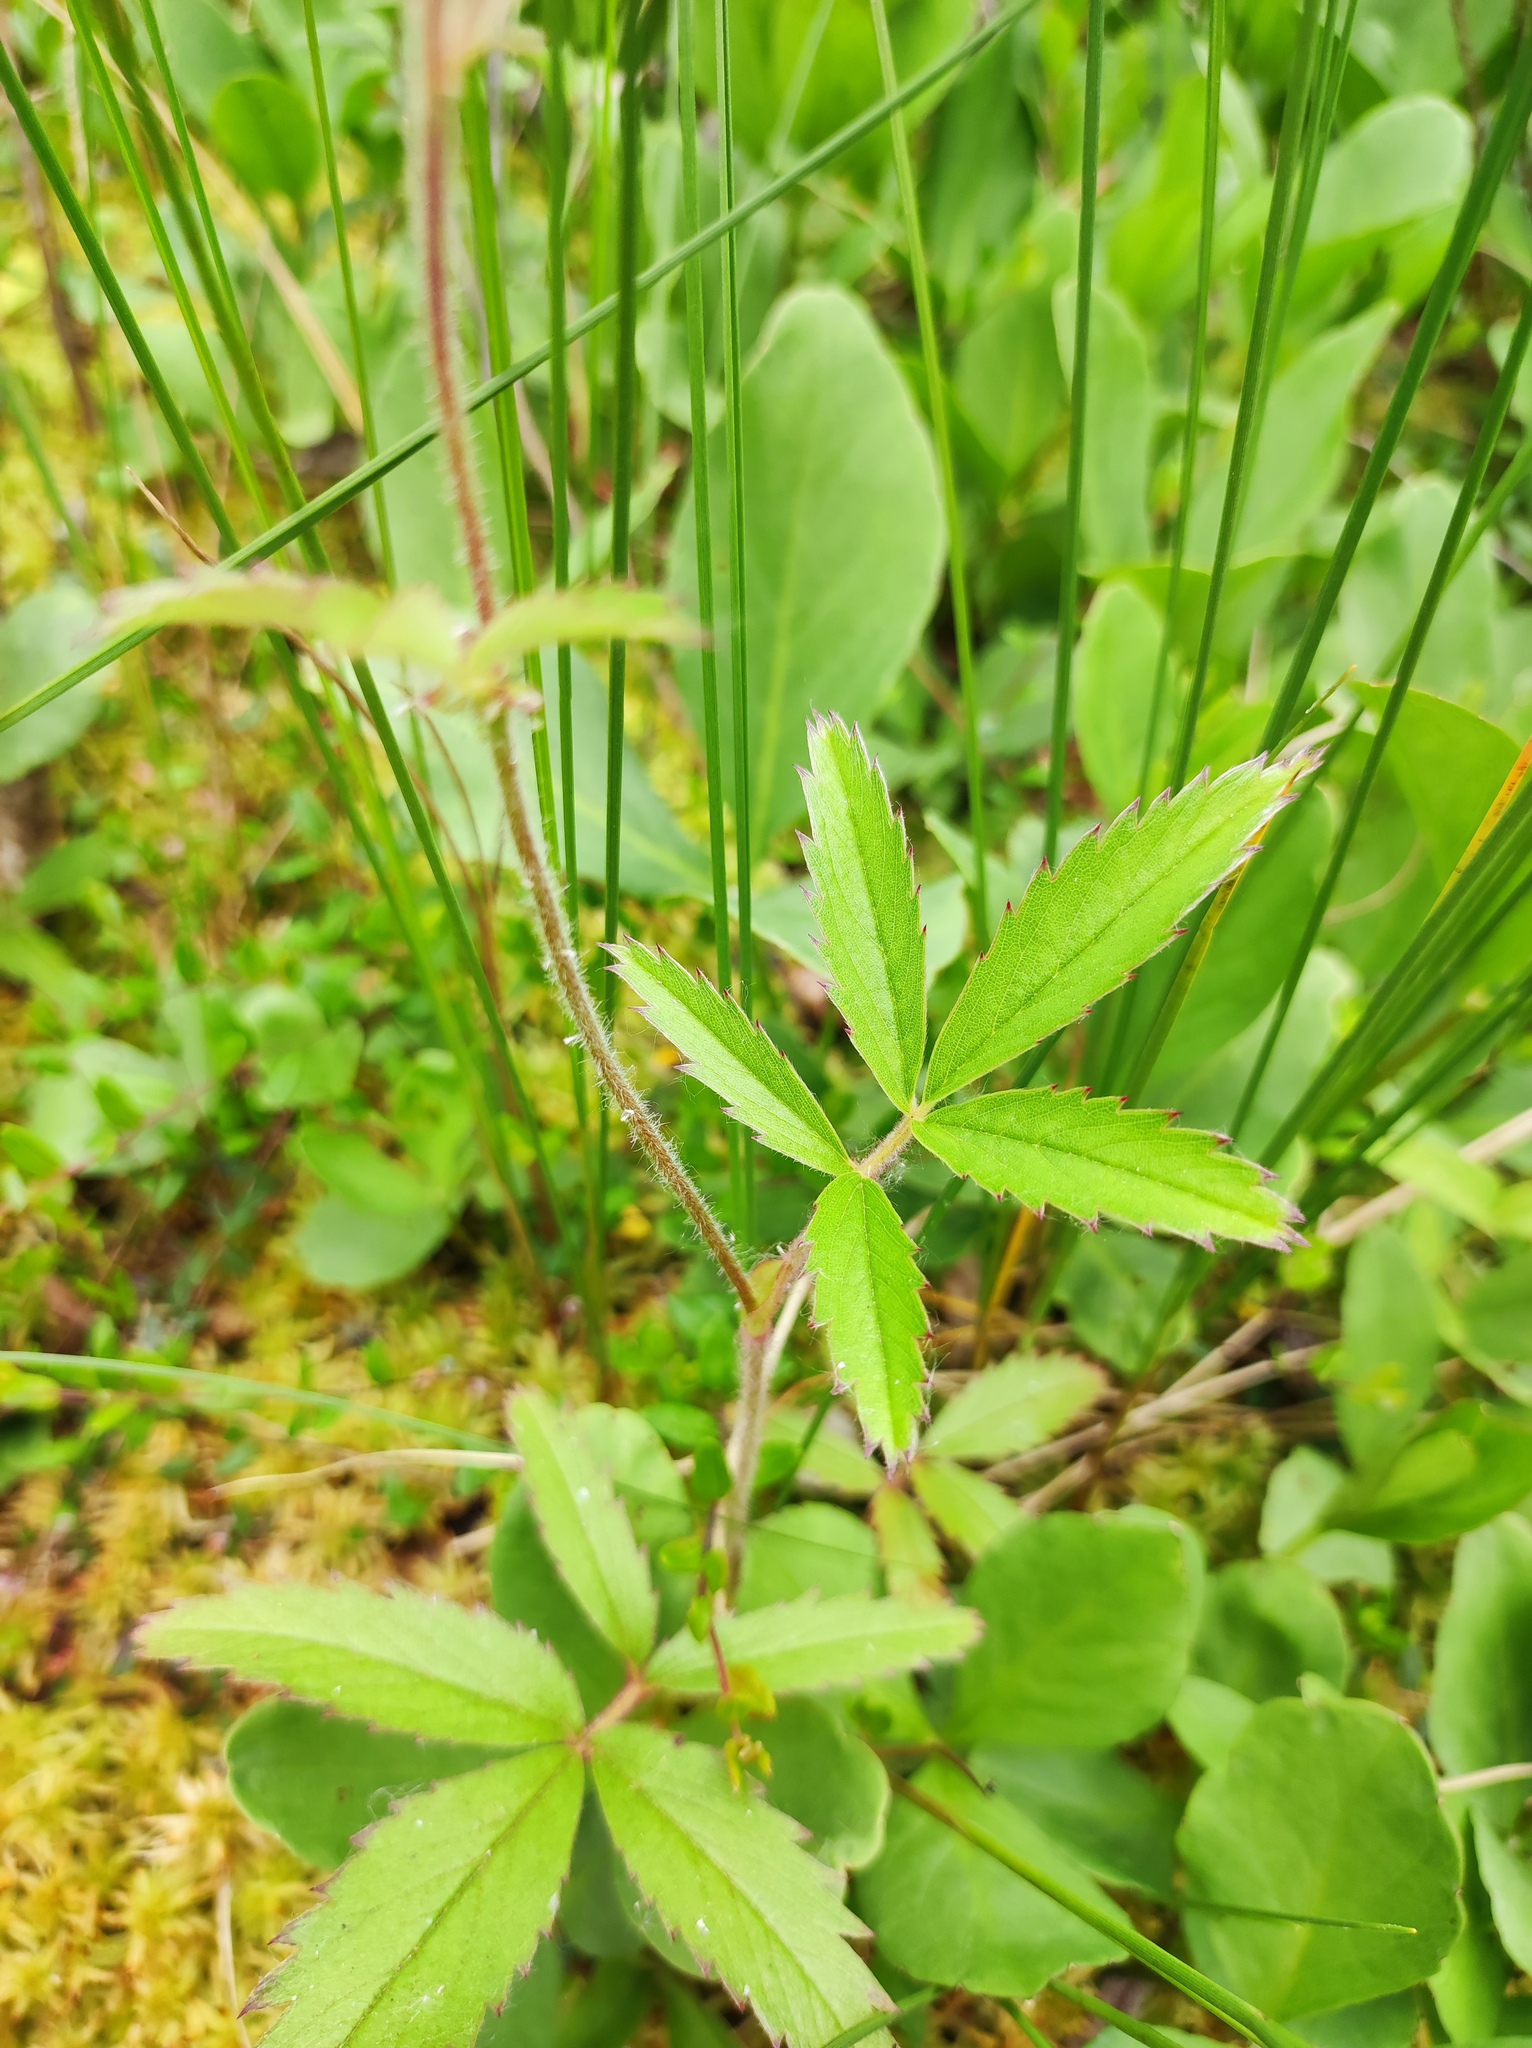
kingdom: Plantae
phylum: Tracheophyta
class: Magnoliopsida
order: Rosales
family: Rosaceae
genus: Comarum
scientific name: Comarum palustre
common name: Marsh cinquefoil
